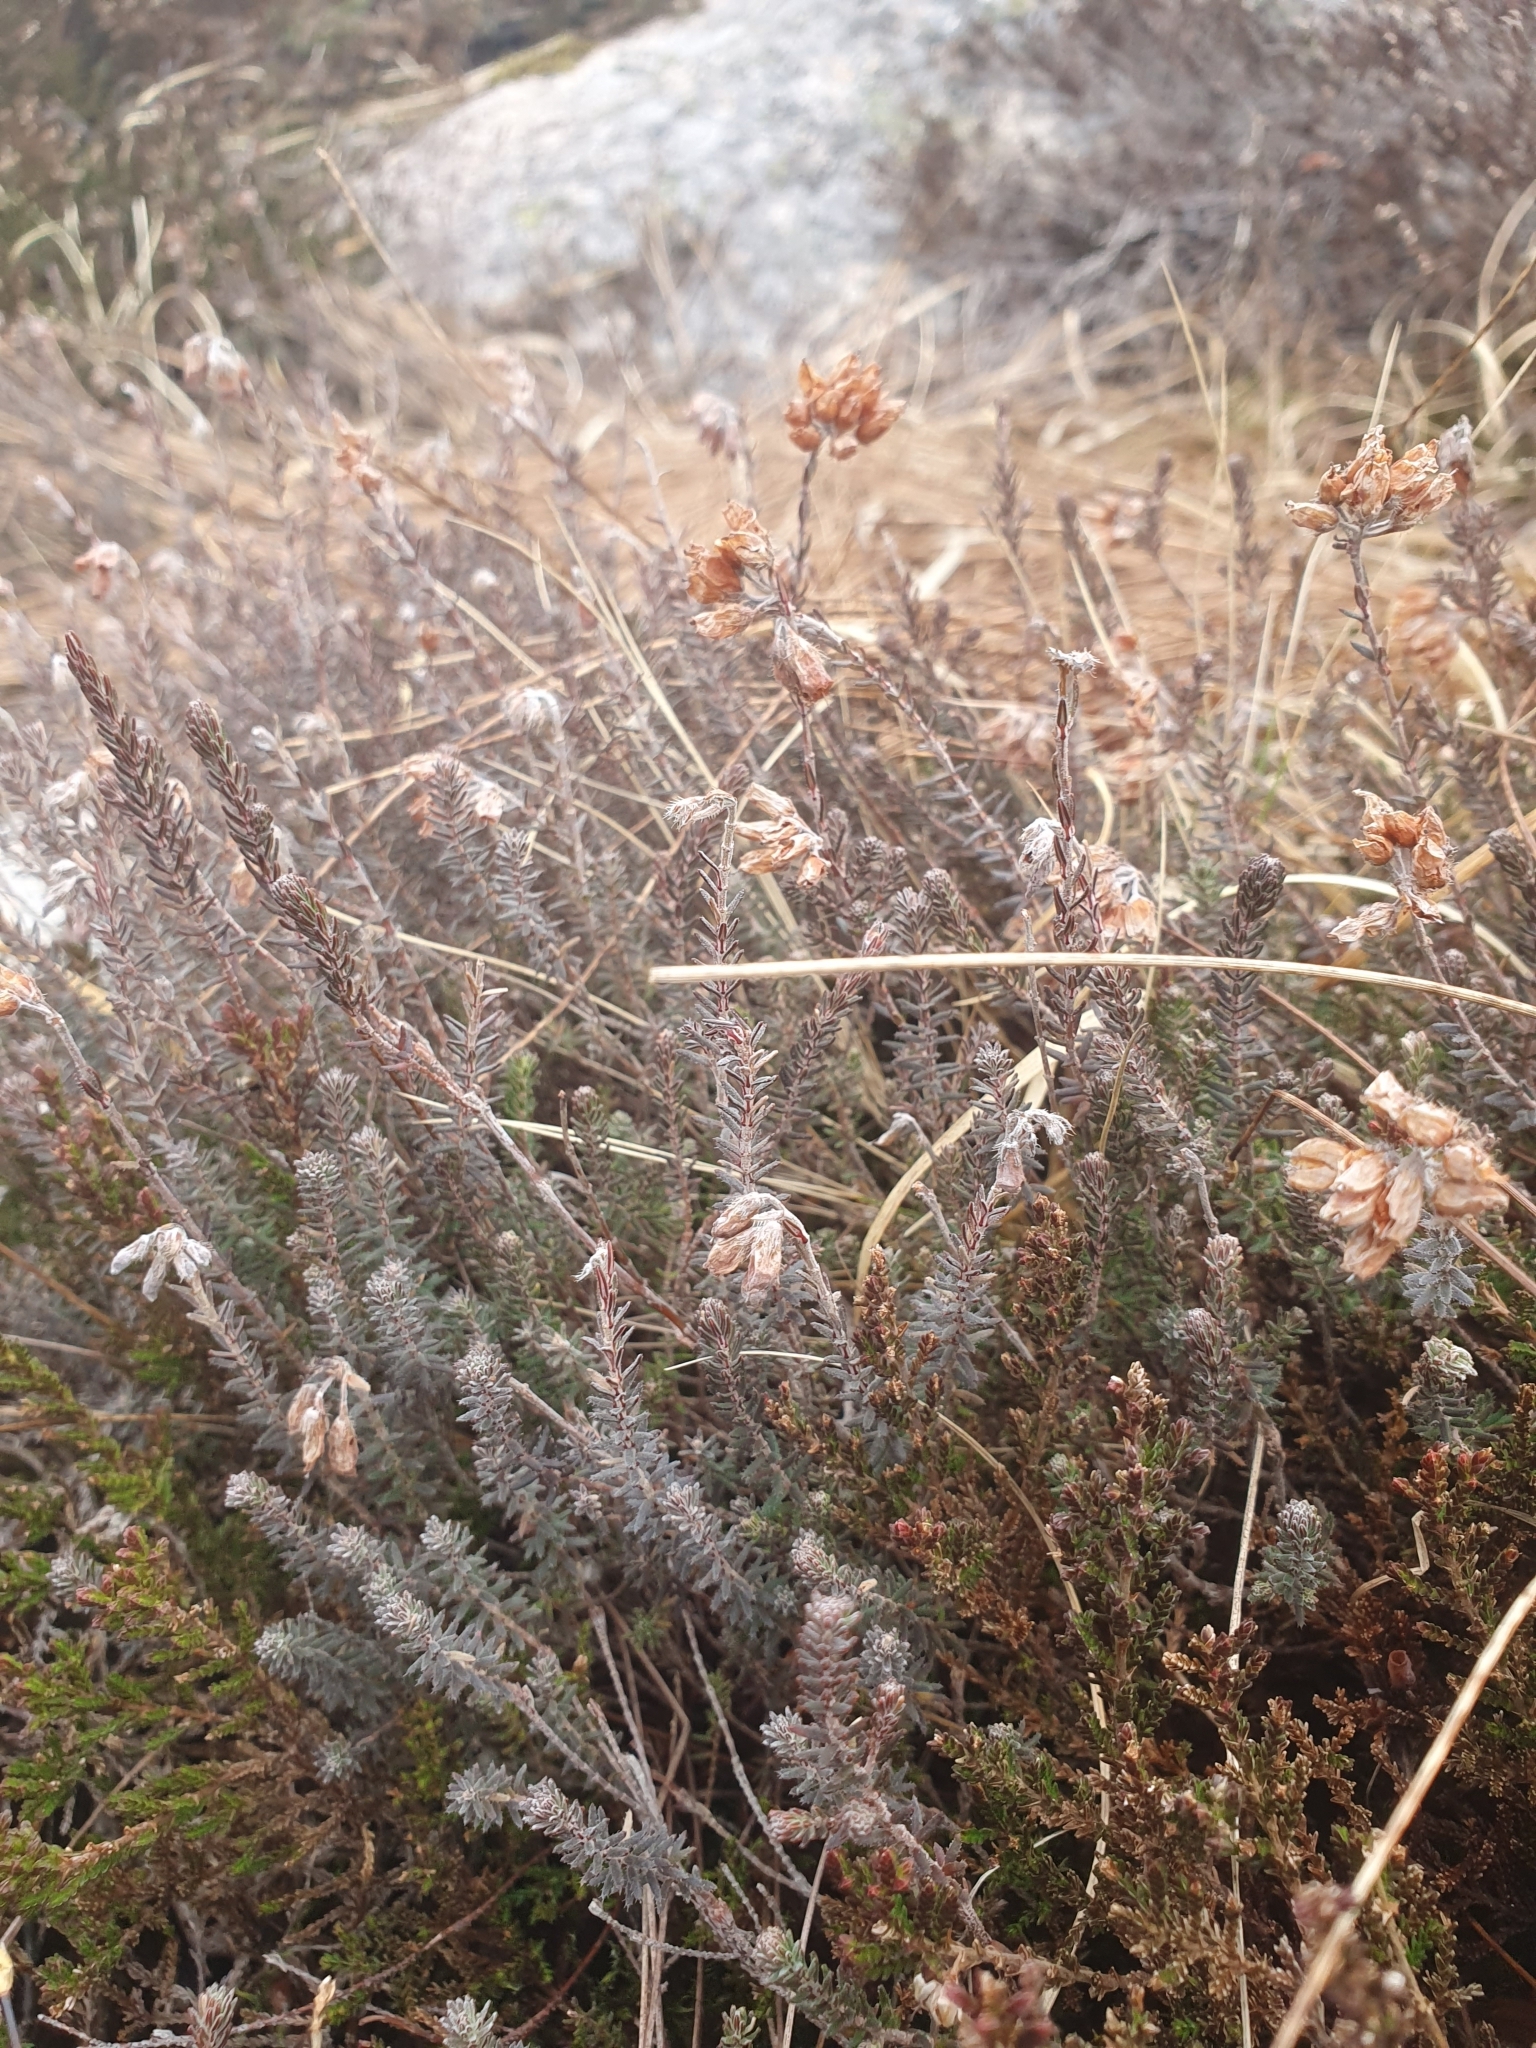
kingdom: Plantae
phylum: Tracheophyta
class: Magnoliopsida
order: Ericales
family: Ericaceae
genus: Erica
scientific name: Erica tetralix
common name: Cross-leaved heath
